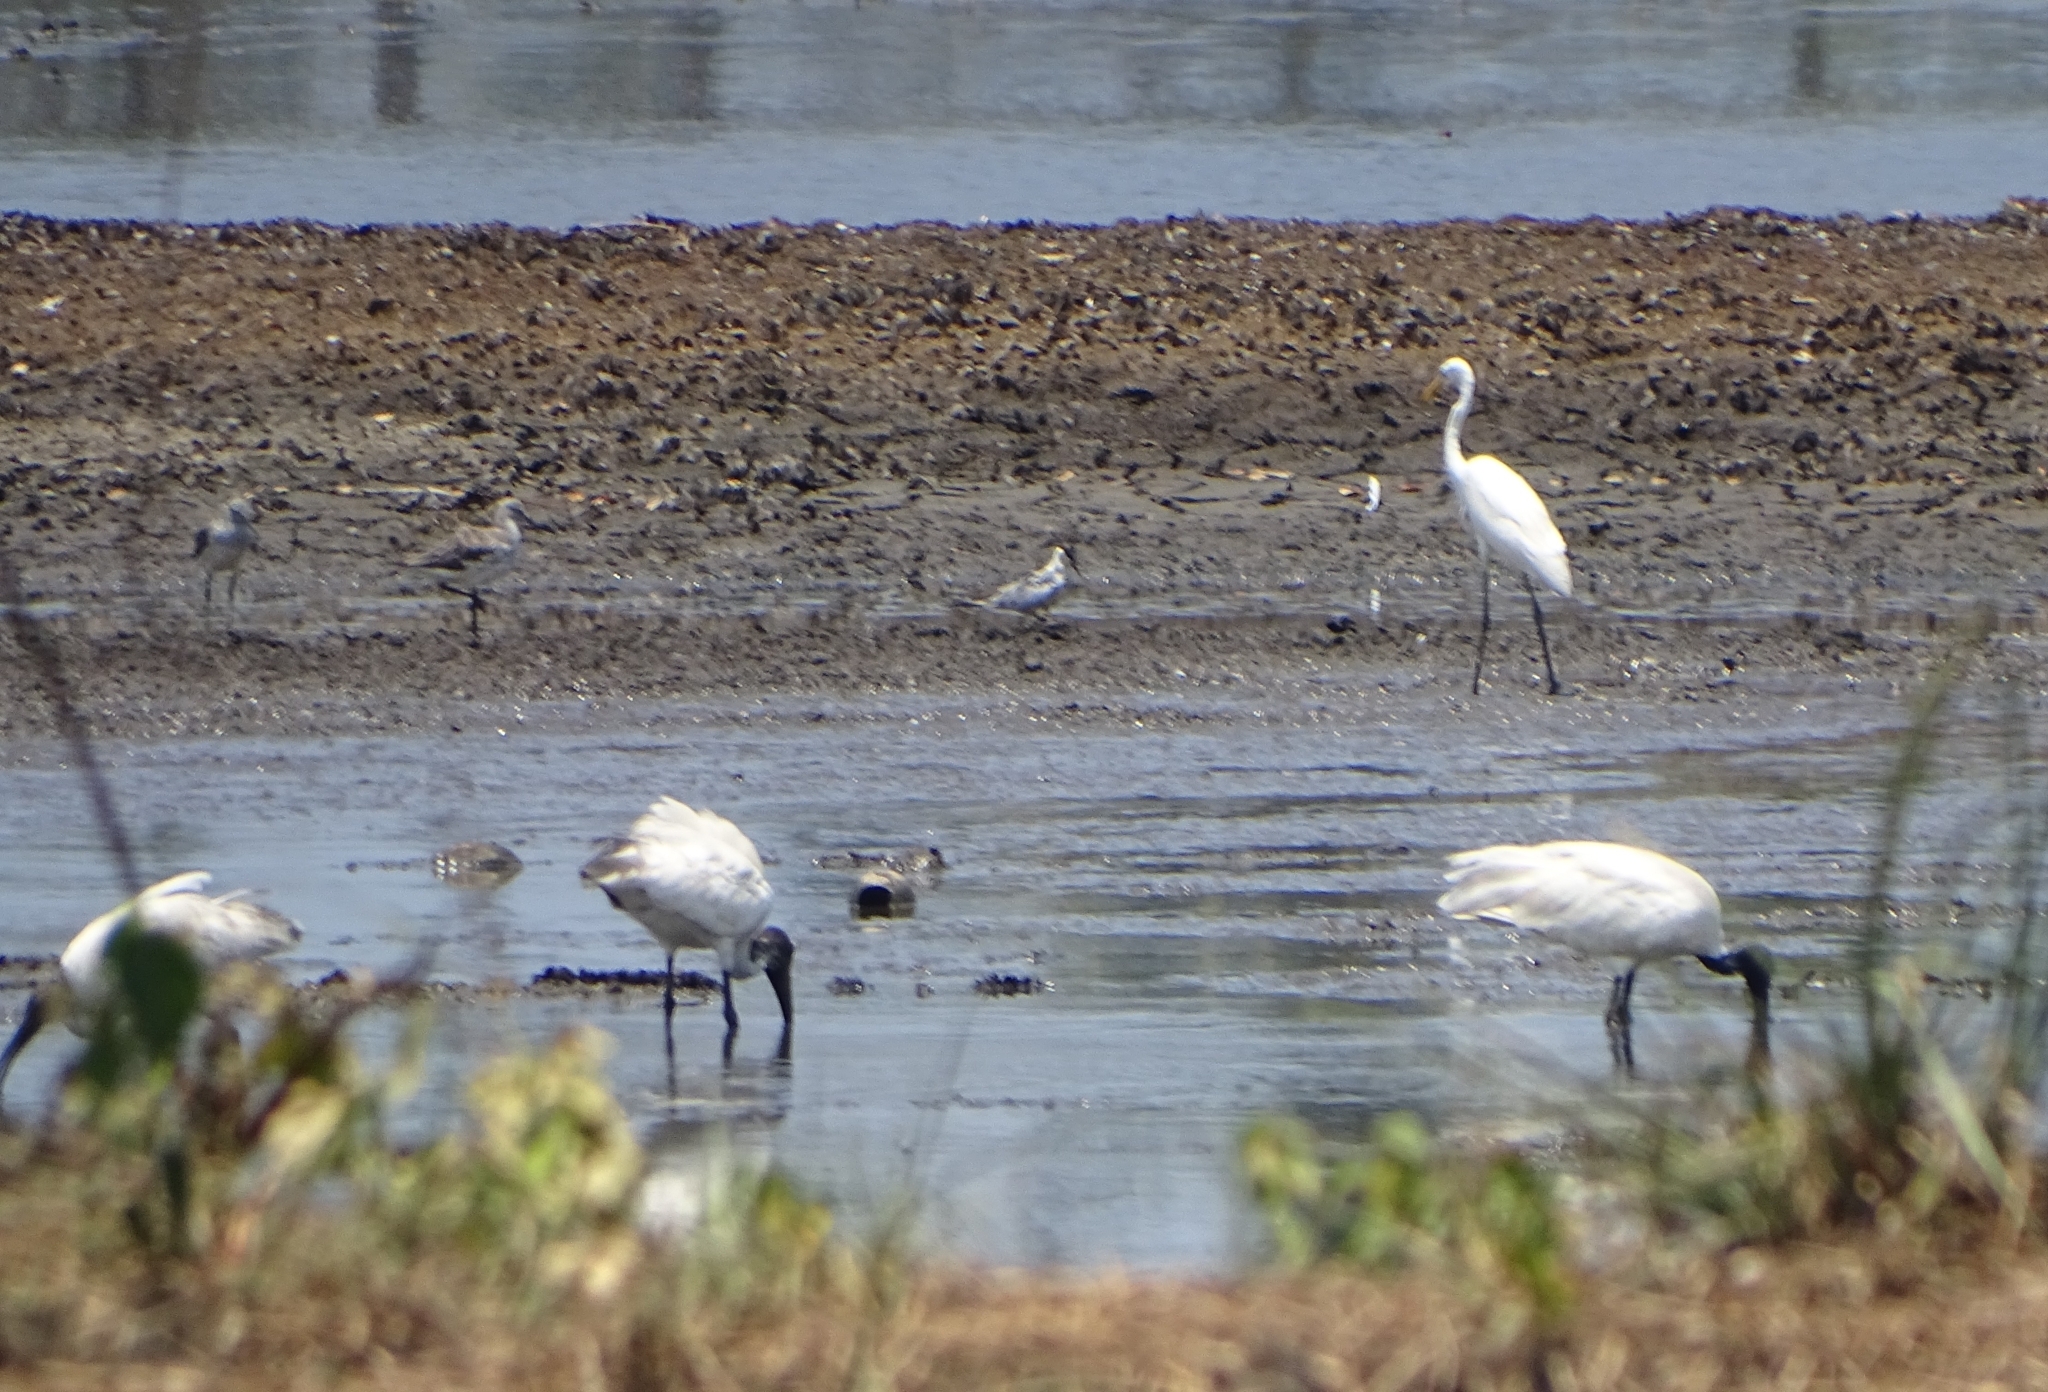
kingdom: Animalia
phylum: Chordata
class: Aves
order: Pelecaniformes
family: Threskiornithidae
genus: Threskiornis
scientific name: Threskiornis melanocephalus
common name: Black-headed ibis
